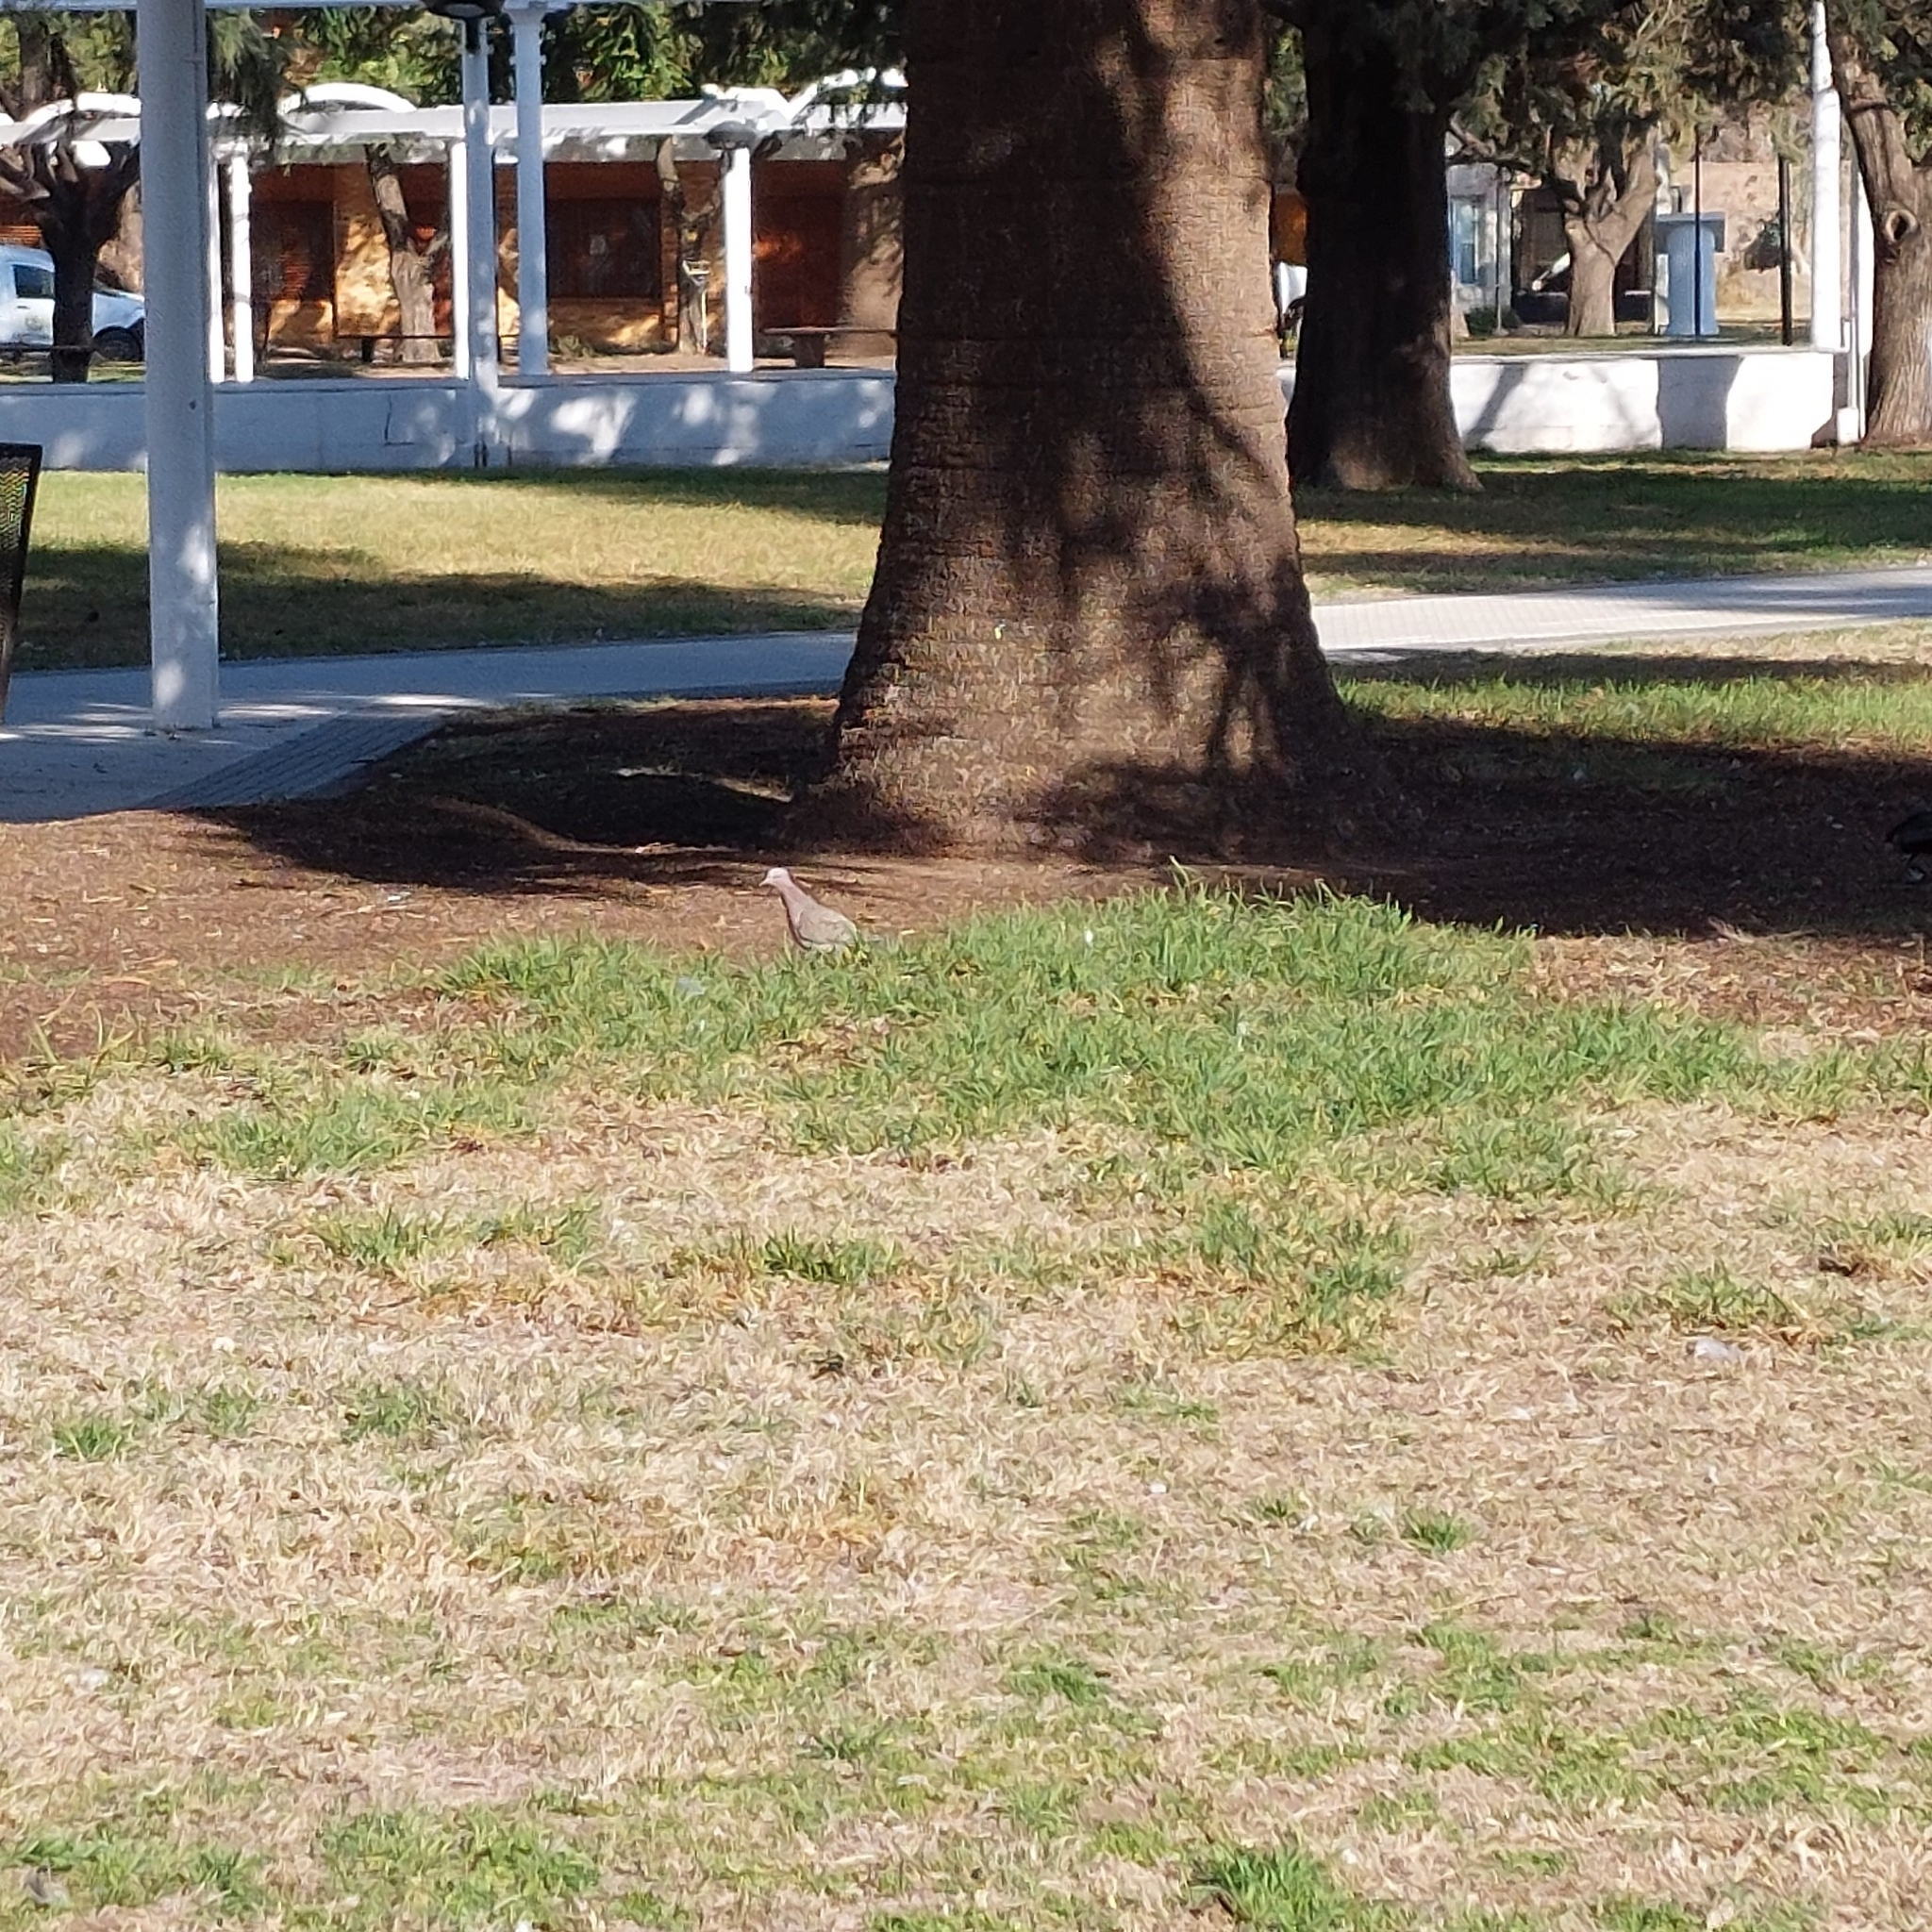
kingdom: Animalia
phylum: Chordata
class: Aves
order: Columbiformes
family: Columbidae
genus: Zenaida
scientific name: Zenaida auriculata
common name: Eared dove
